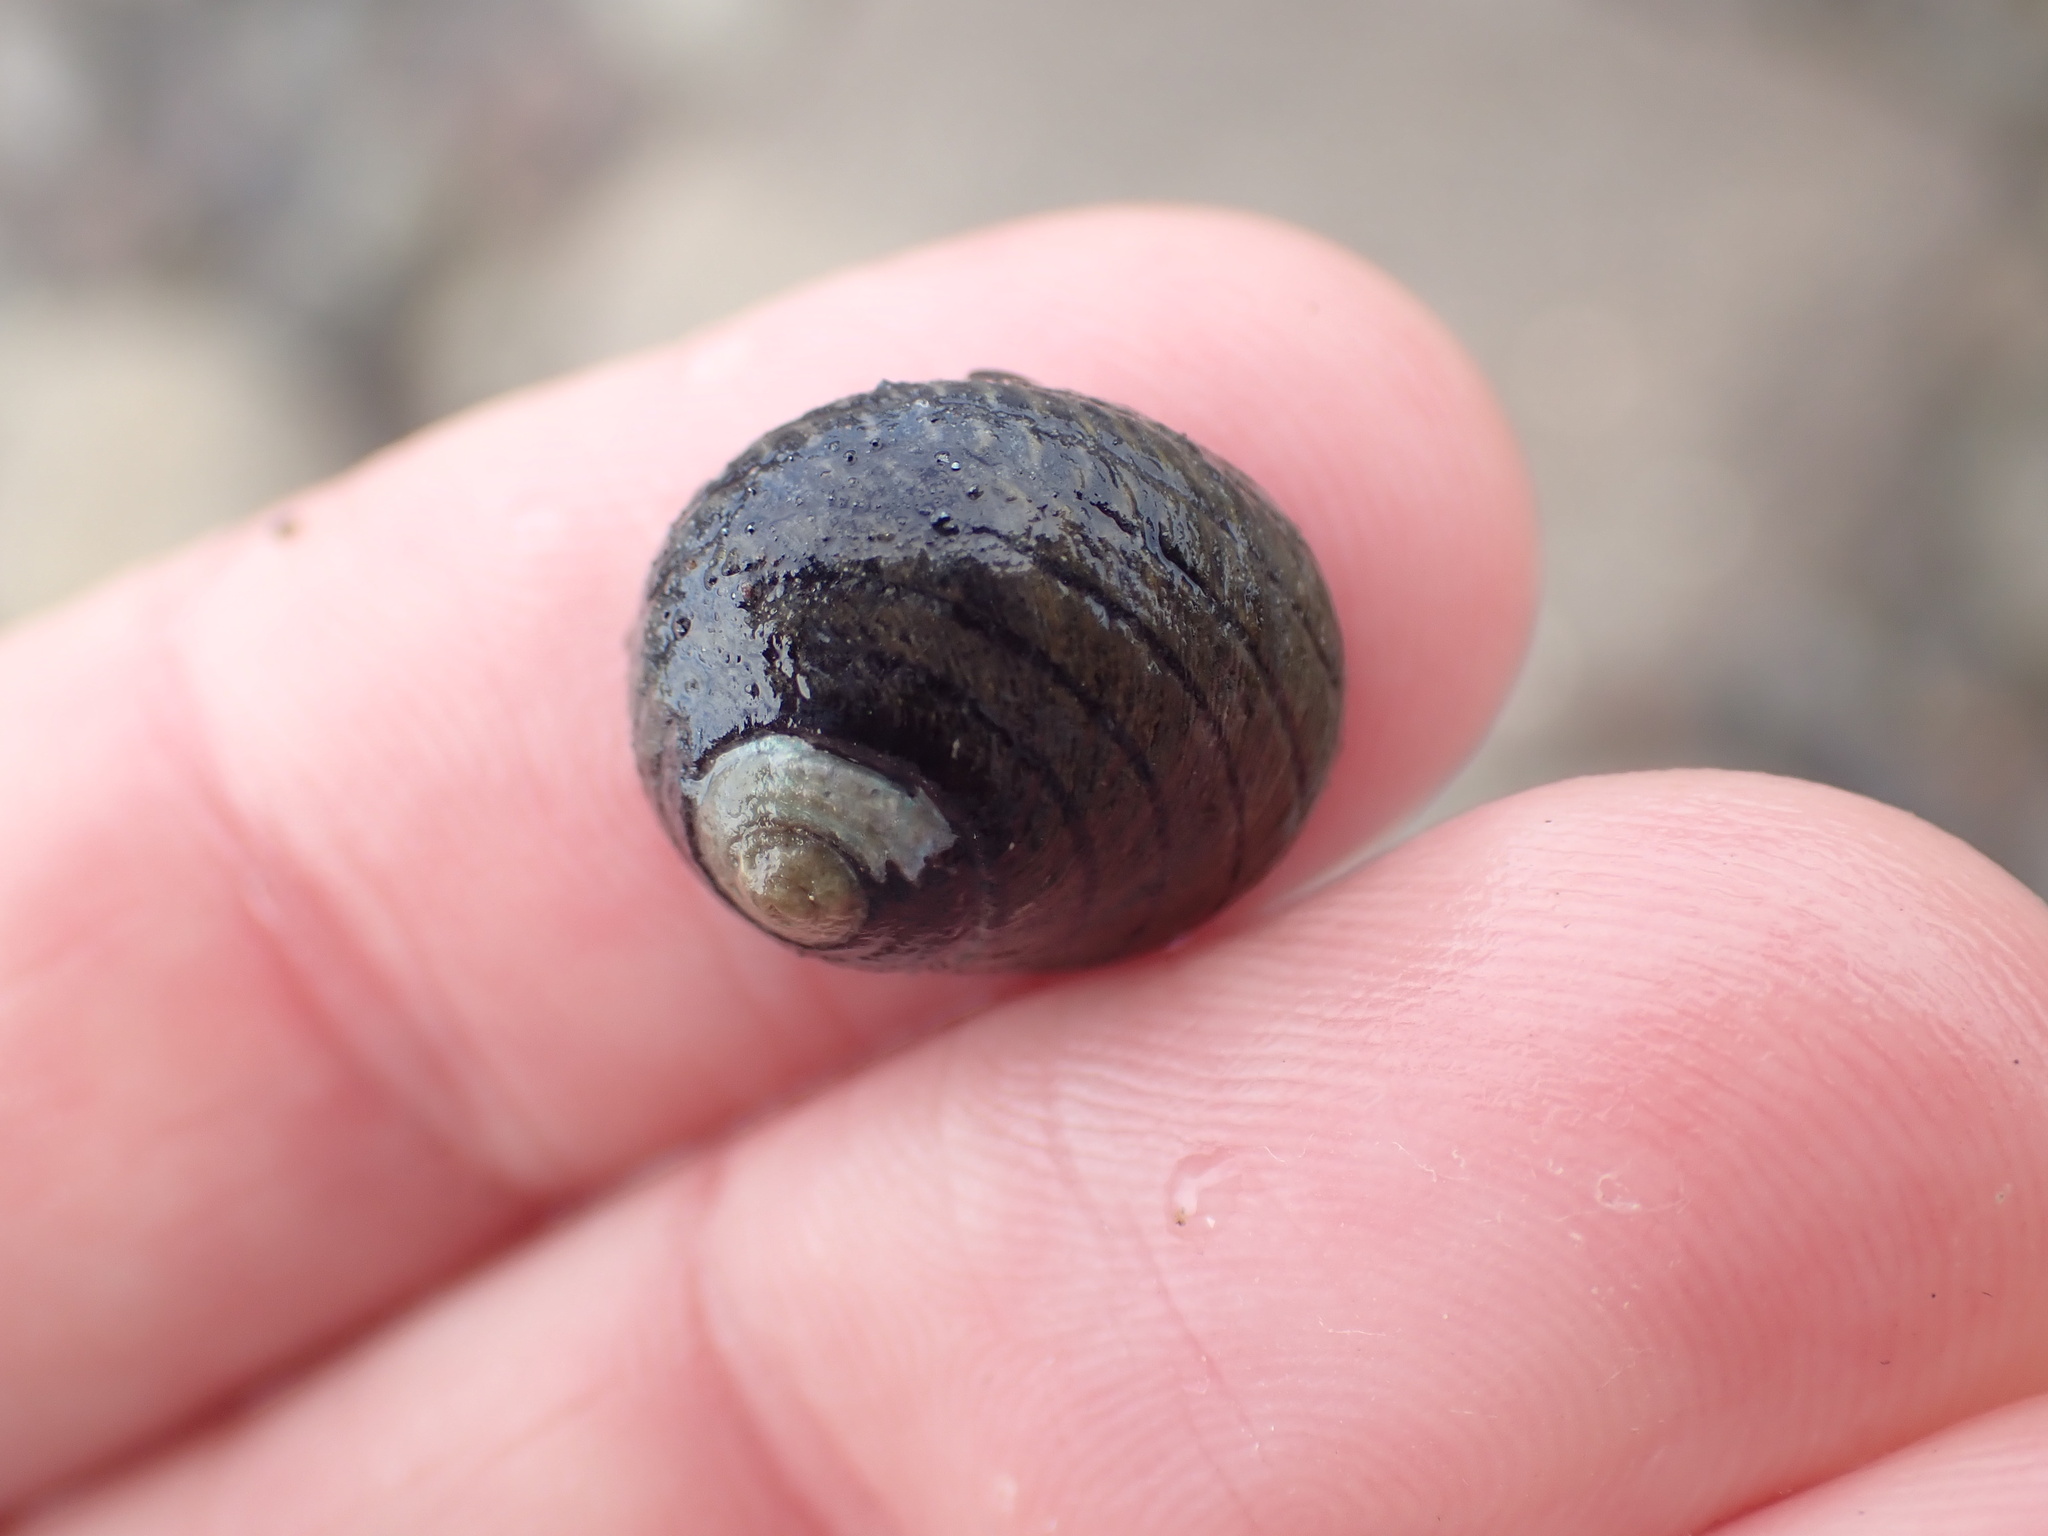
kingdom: Animalia
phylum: Mollusca
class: Gastropoda
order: Trochida
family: Trochidae
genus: Diloma
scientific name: Diloma aethiops
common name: Scorched monodont
